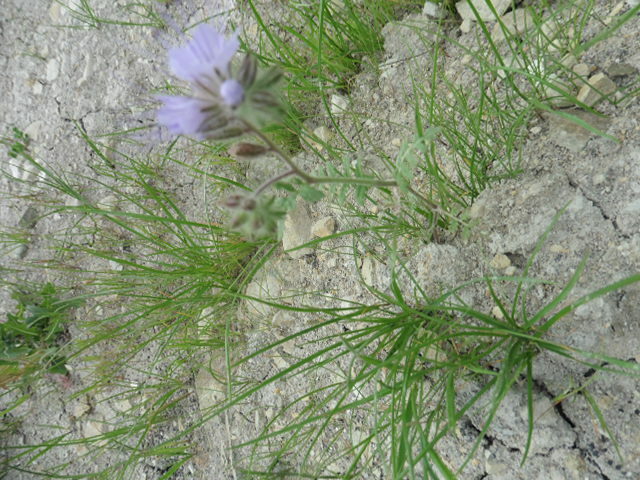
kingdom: Plantae
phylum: Tracheophyta
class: Magnoliopsida
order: Boraginales
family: Hydrophyllaceae
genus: Phacelia
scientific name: Phacelia tanacetifolia
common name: Phacelia
